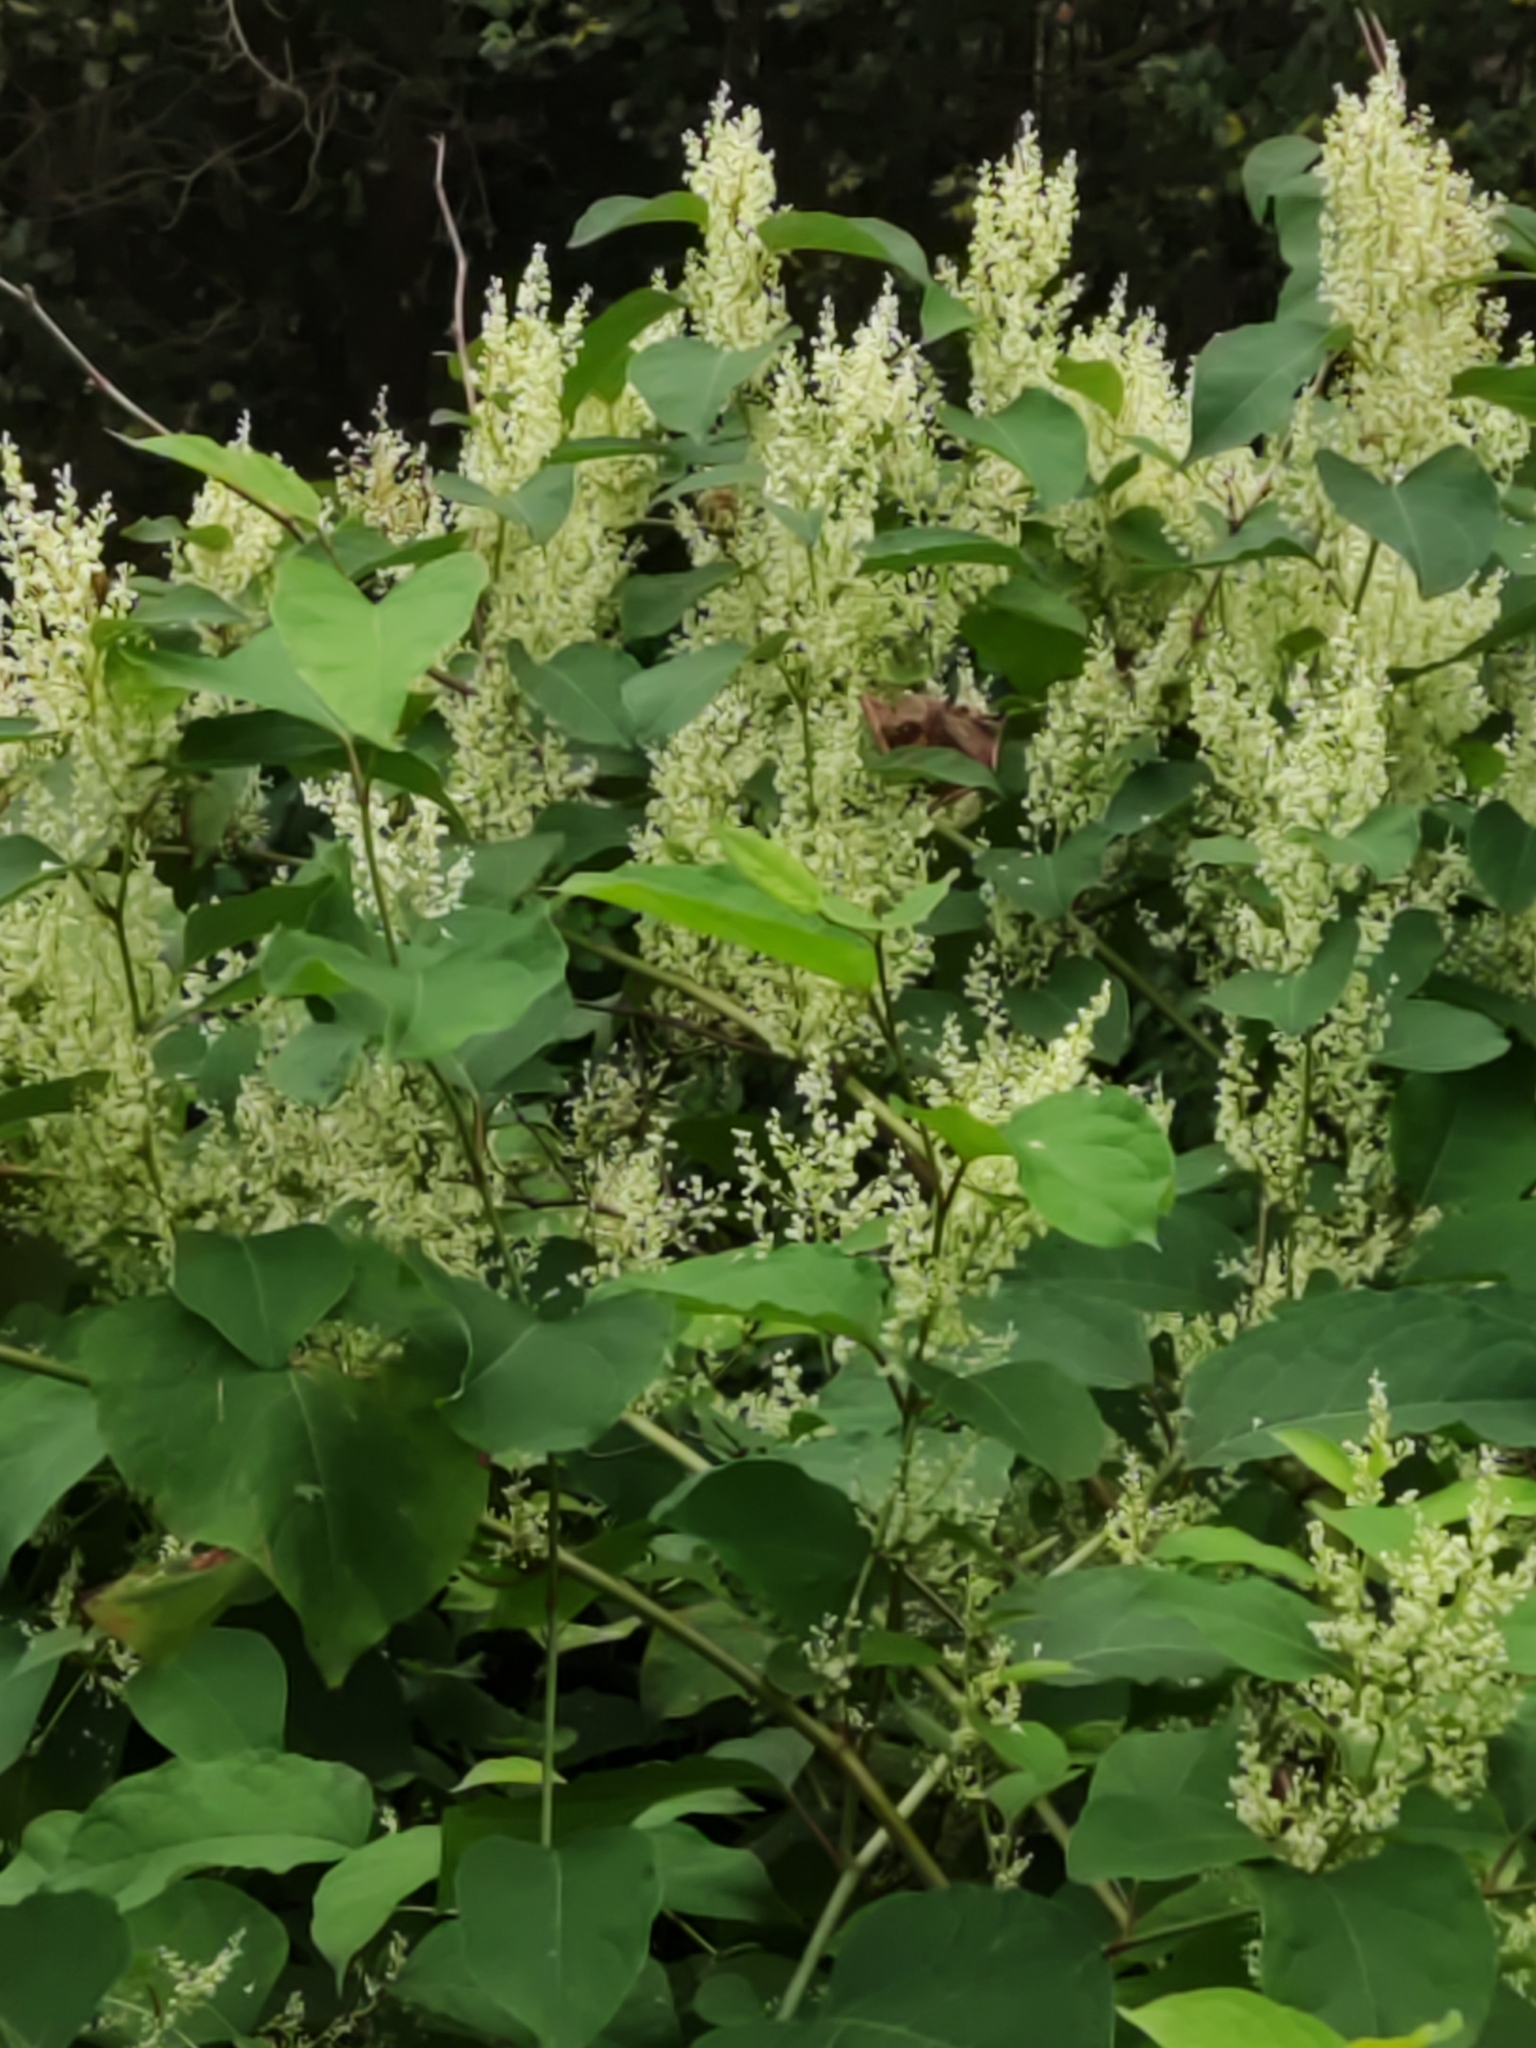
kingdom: Plantae
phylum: Tracheophyta
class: Magnoliopsida
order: Caryophyllales
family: Polygonaceae
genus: Reynoutria
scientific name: Reynoutria japonica
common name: Japanese knotweed
